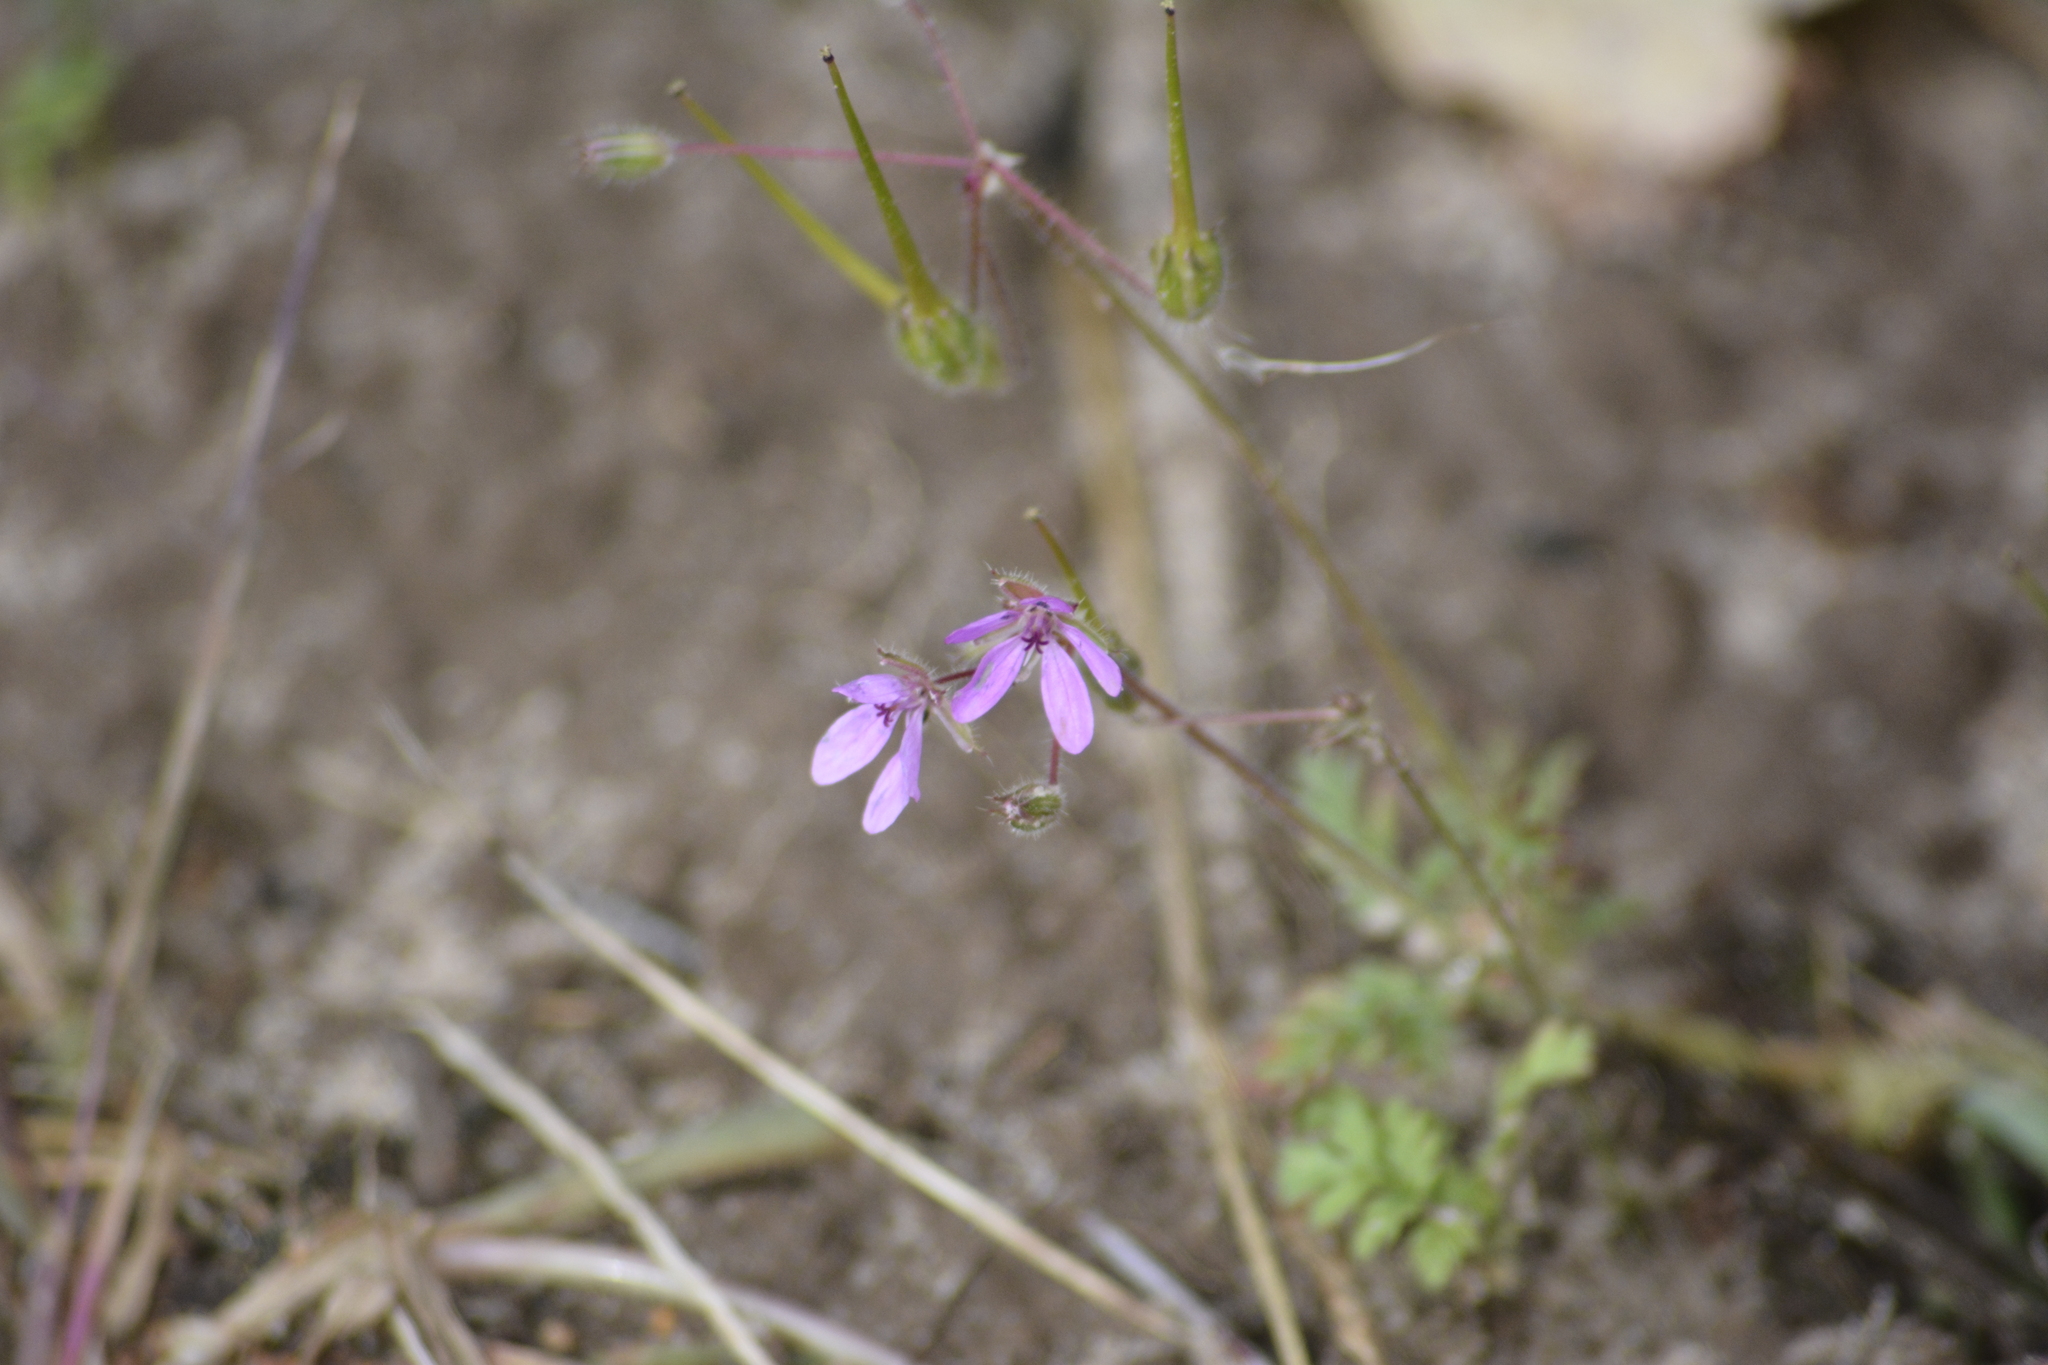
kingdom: Plantae
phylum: Tracheophyta
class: Magnoliopsida
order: Geraniales
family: Geraniaceae
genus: Erodium
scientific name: Erodium cicutarium
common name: Common stork's-bill
